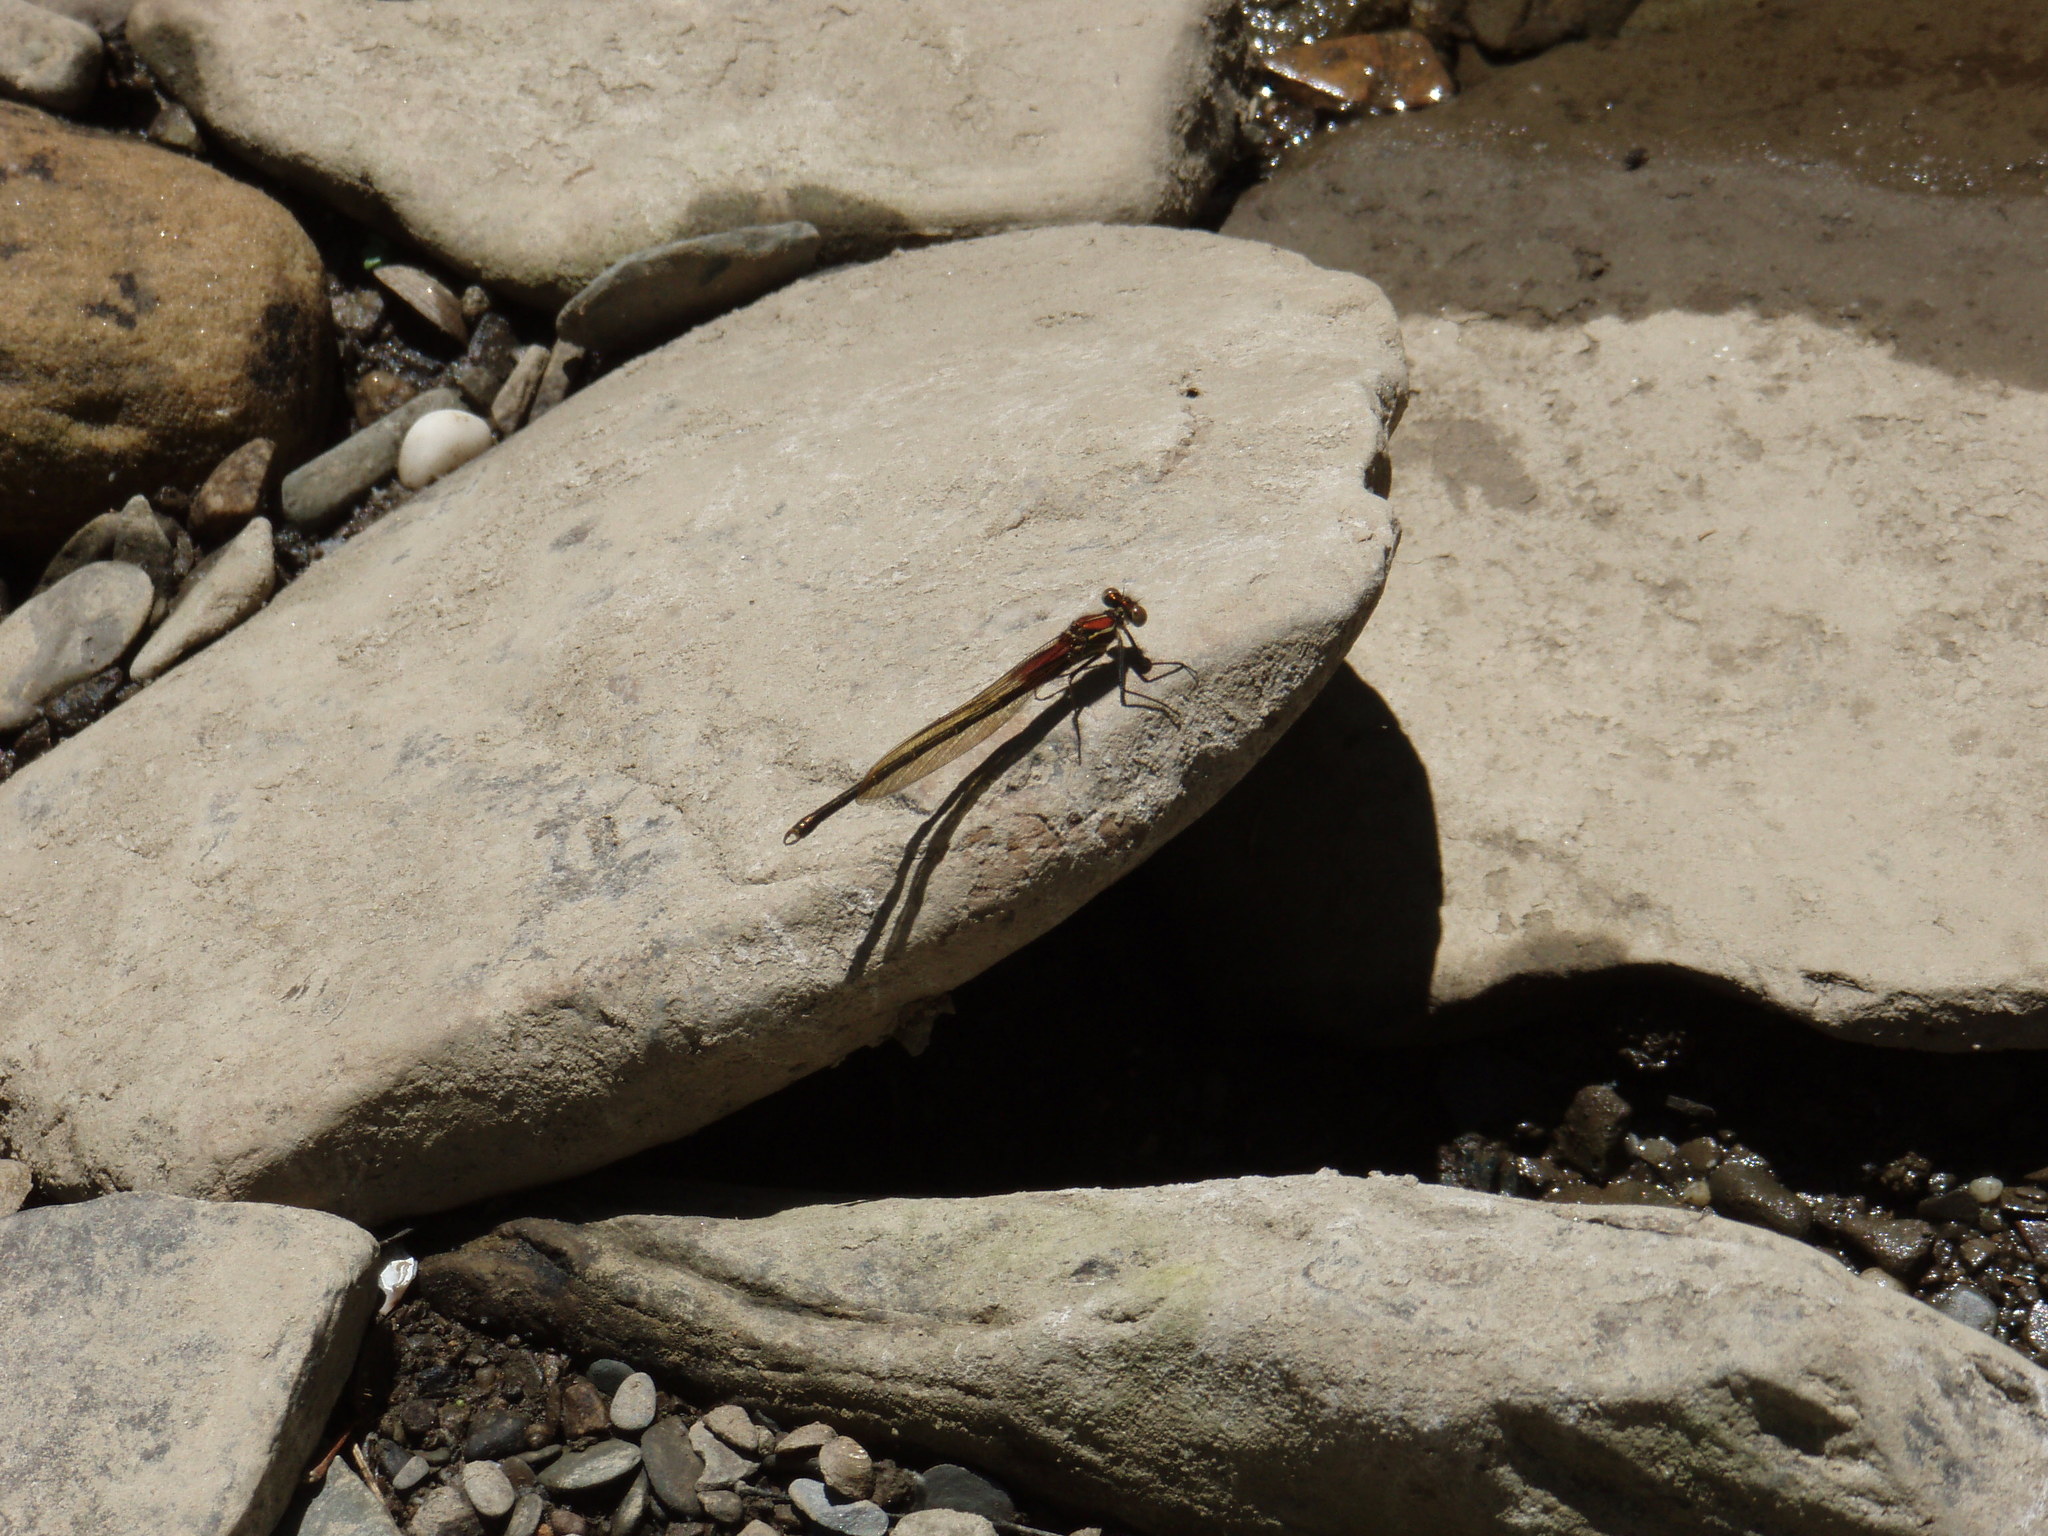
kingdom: Animalia
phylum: Arthropoda
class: Insecta
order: Odonata
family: Calopterygidae
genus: Hetaerina
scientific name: Hetaerina americana
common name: American rubyspot
